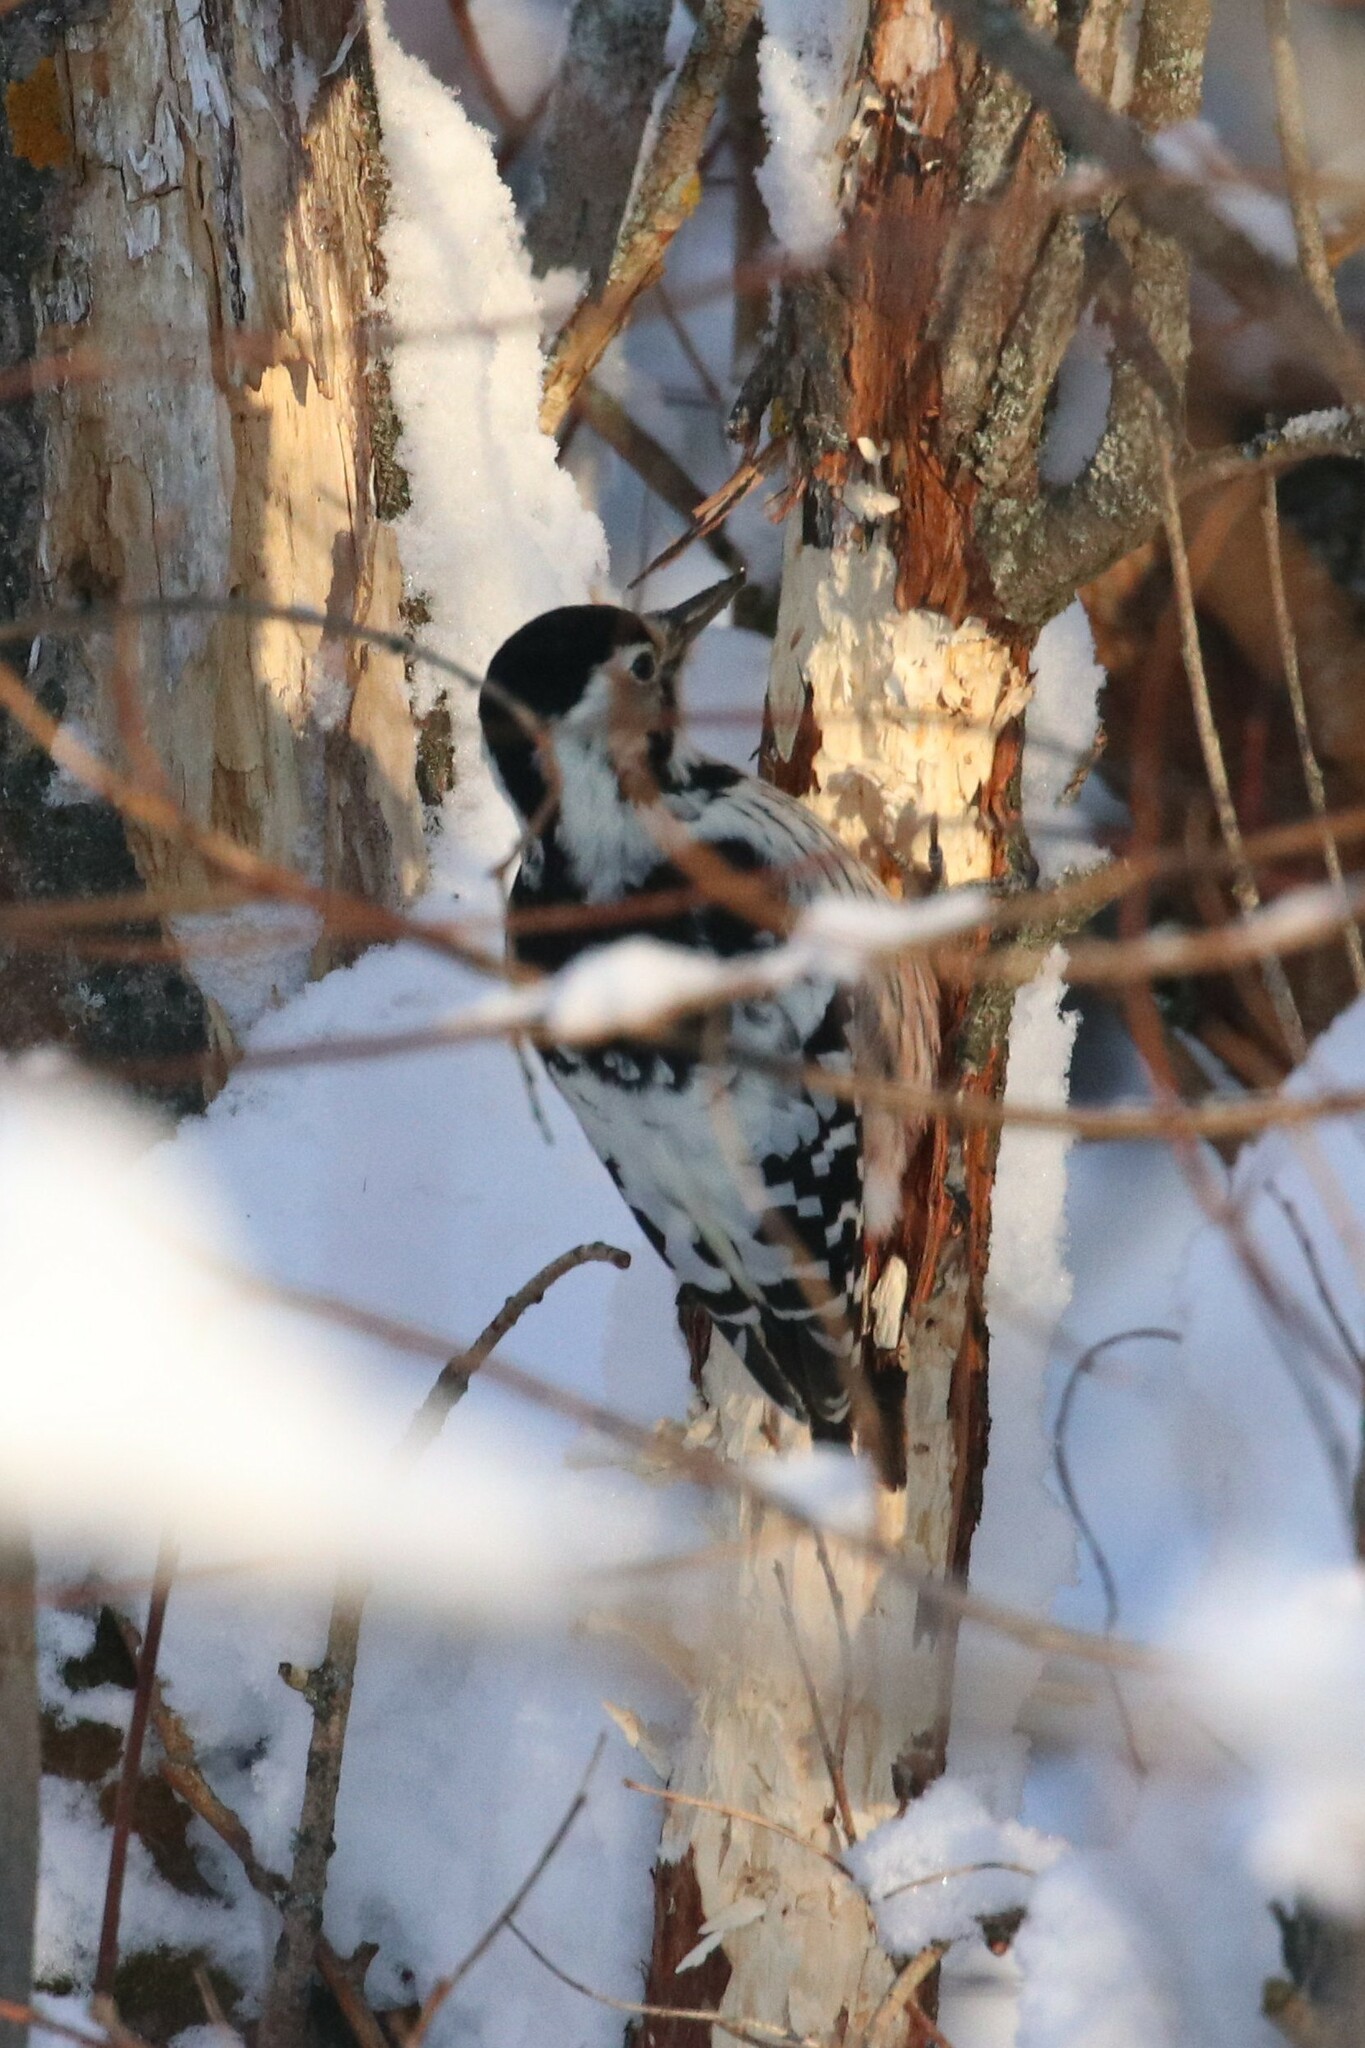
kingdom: Animalia
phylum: Chordata
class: Aves
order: Piciformes
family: Picidae
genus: Dendrocopos
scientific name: Dendrocopos leucotos
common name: White-backed woodpecker
